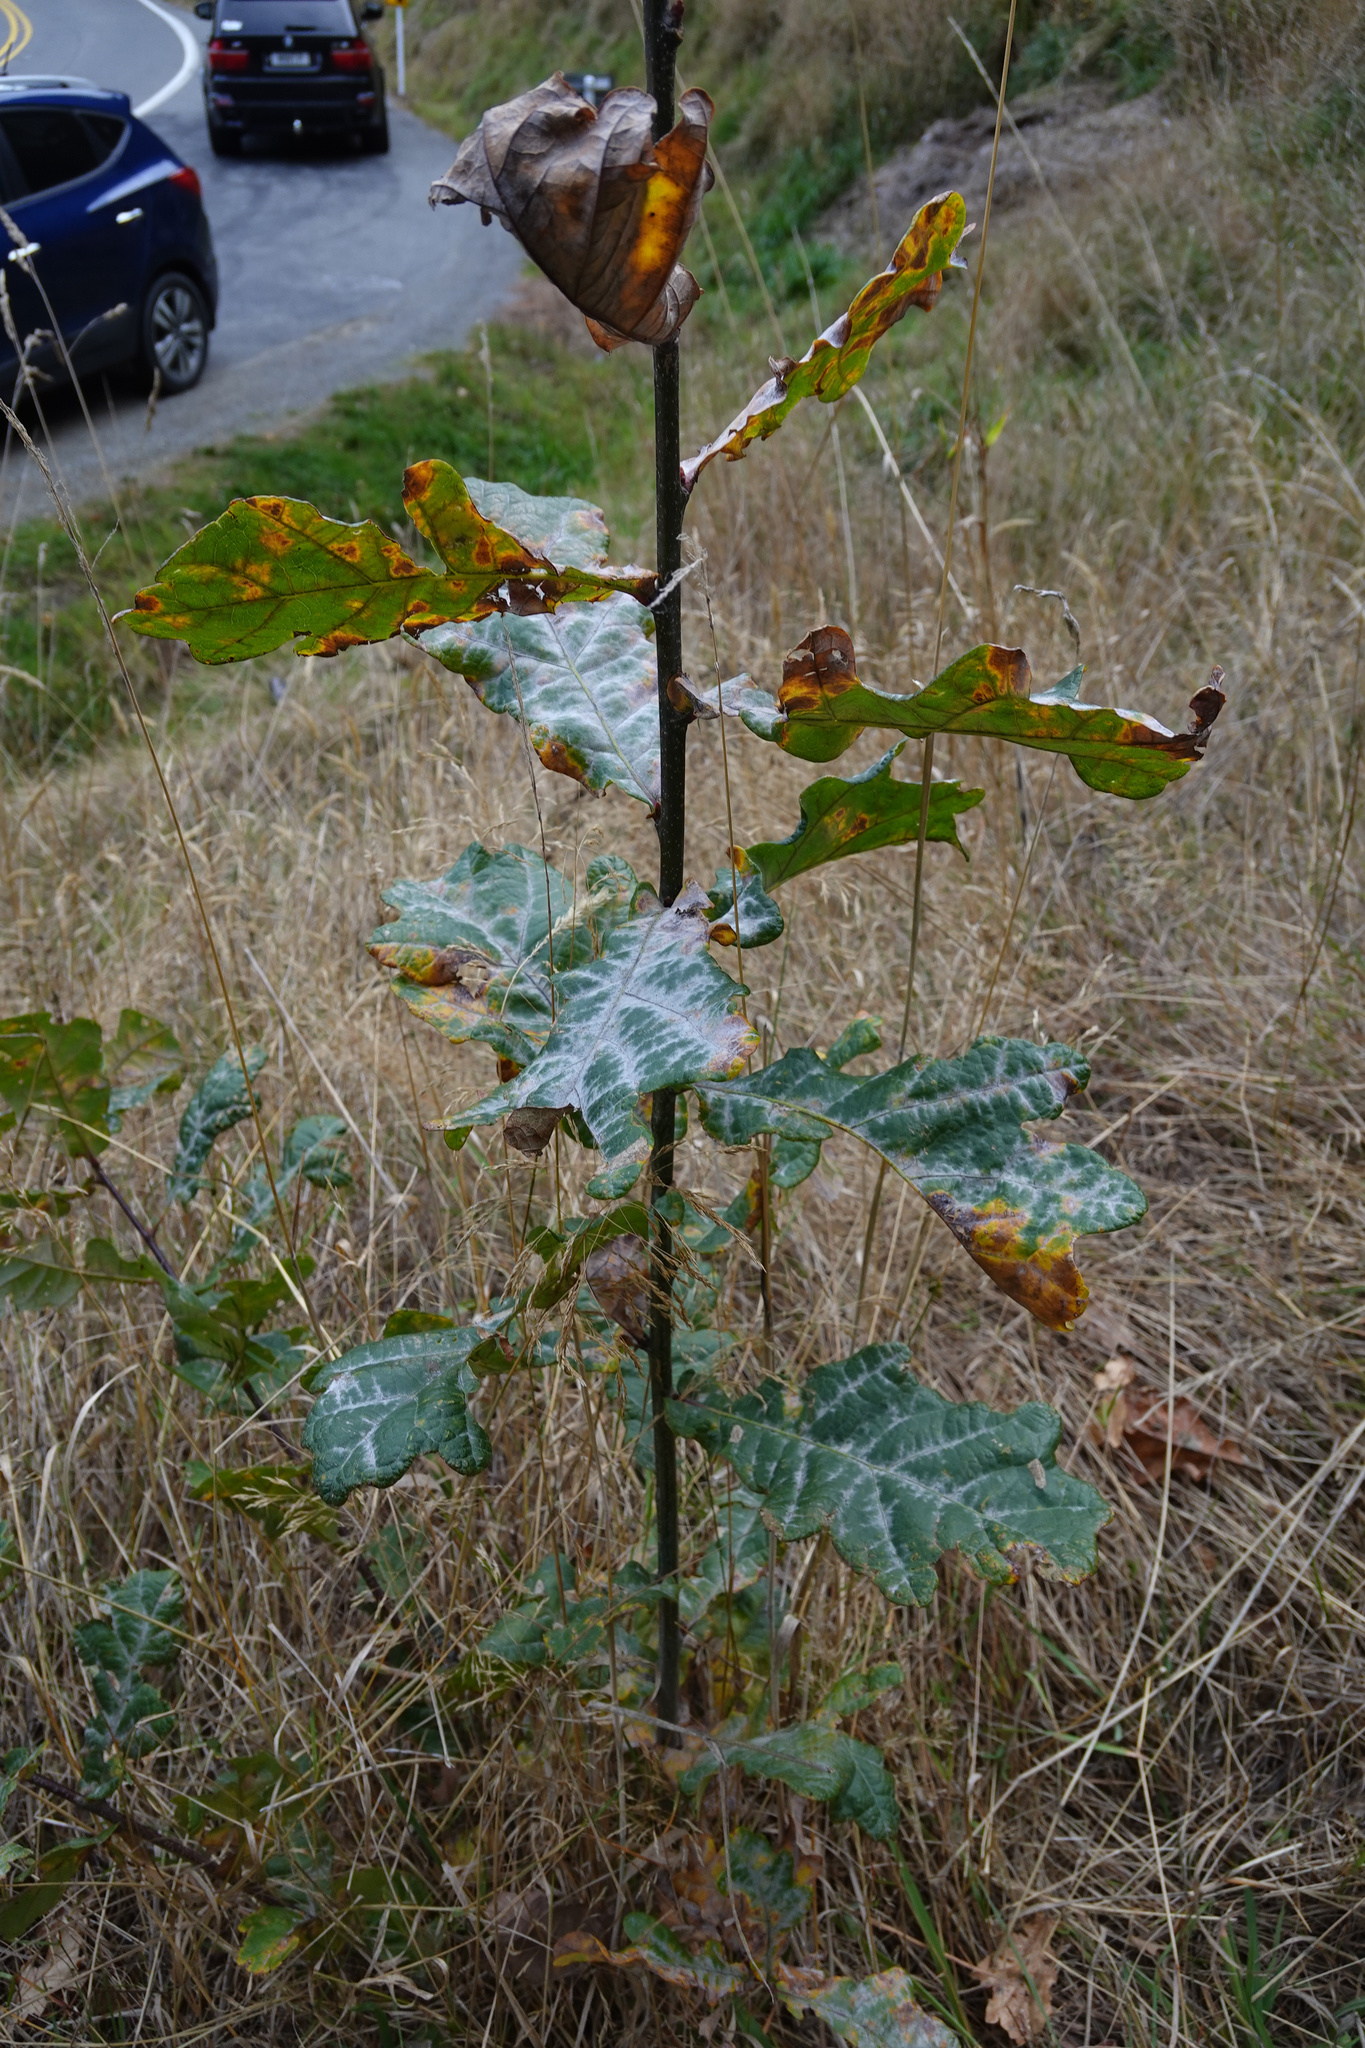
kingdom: Fungi
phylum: Ascomycota
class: Leotiomycetes
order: Helotiales
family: Erysiphaceae
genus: Erysiphe
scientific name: Erysiphe alphitoides
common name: Oak mildew
